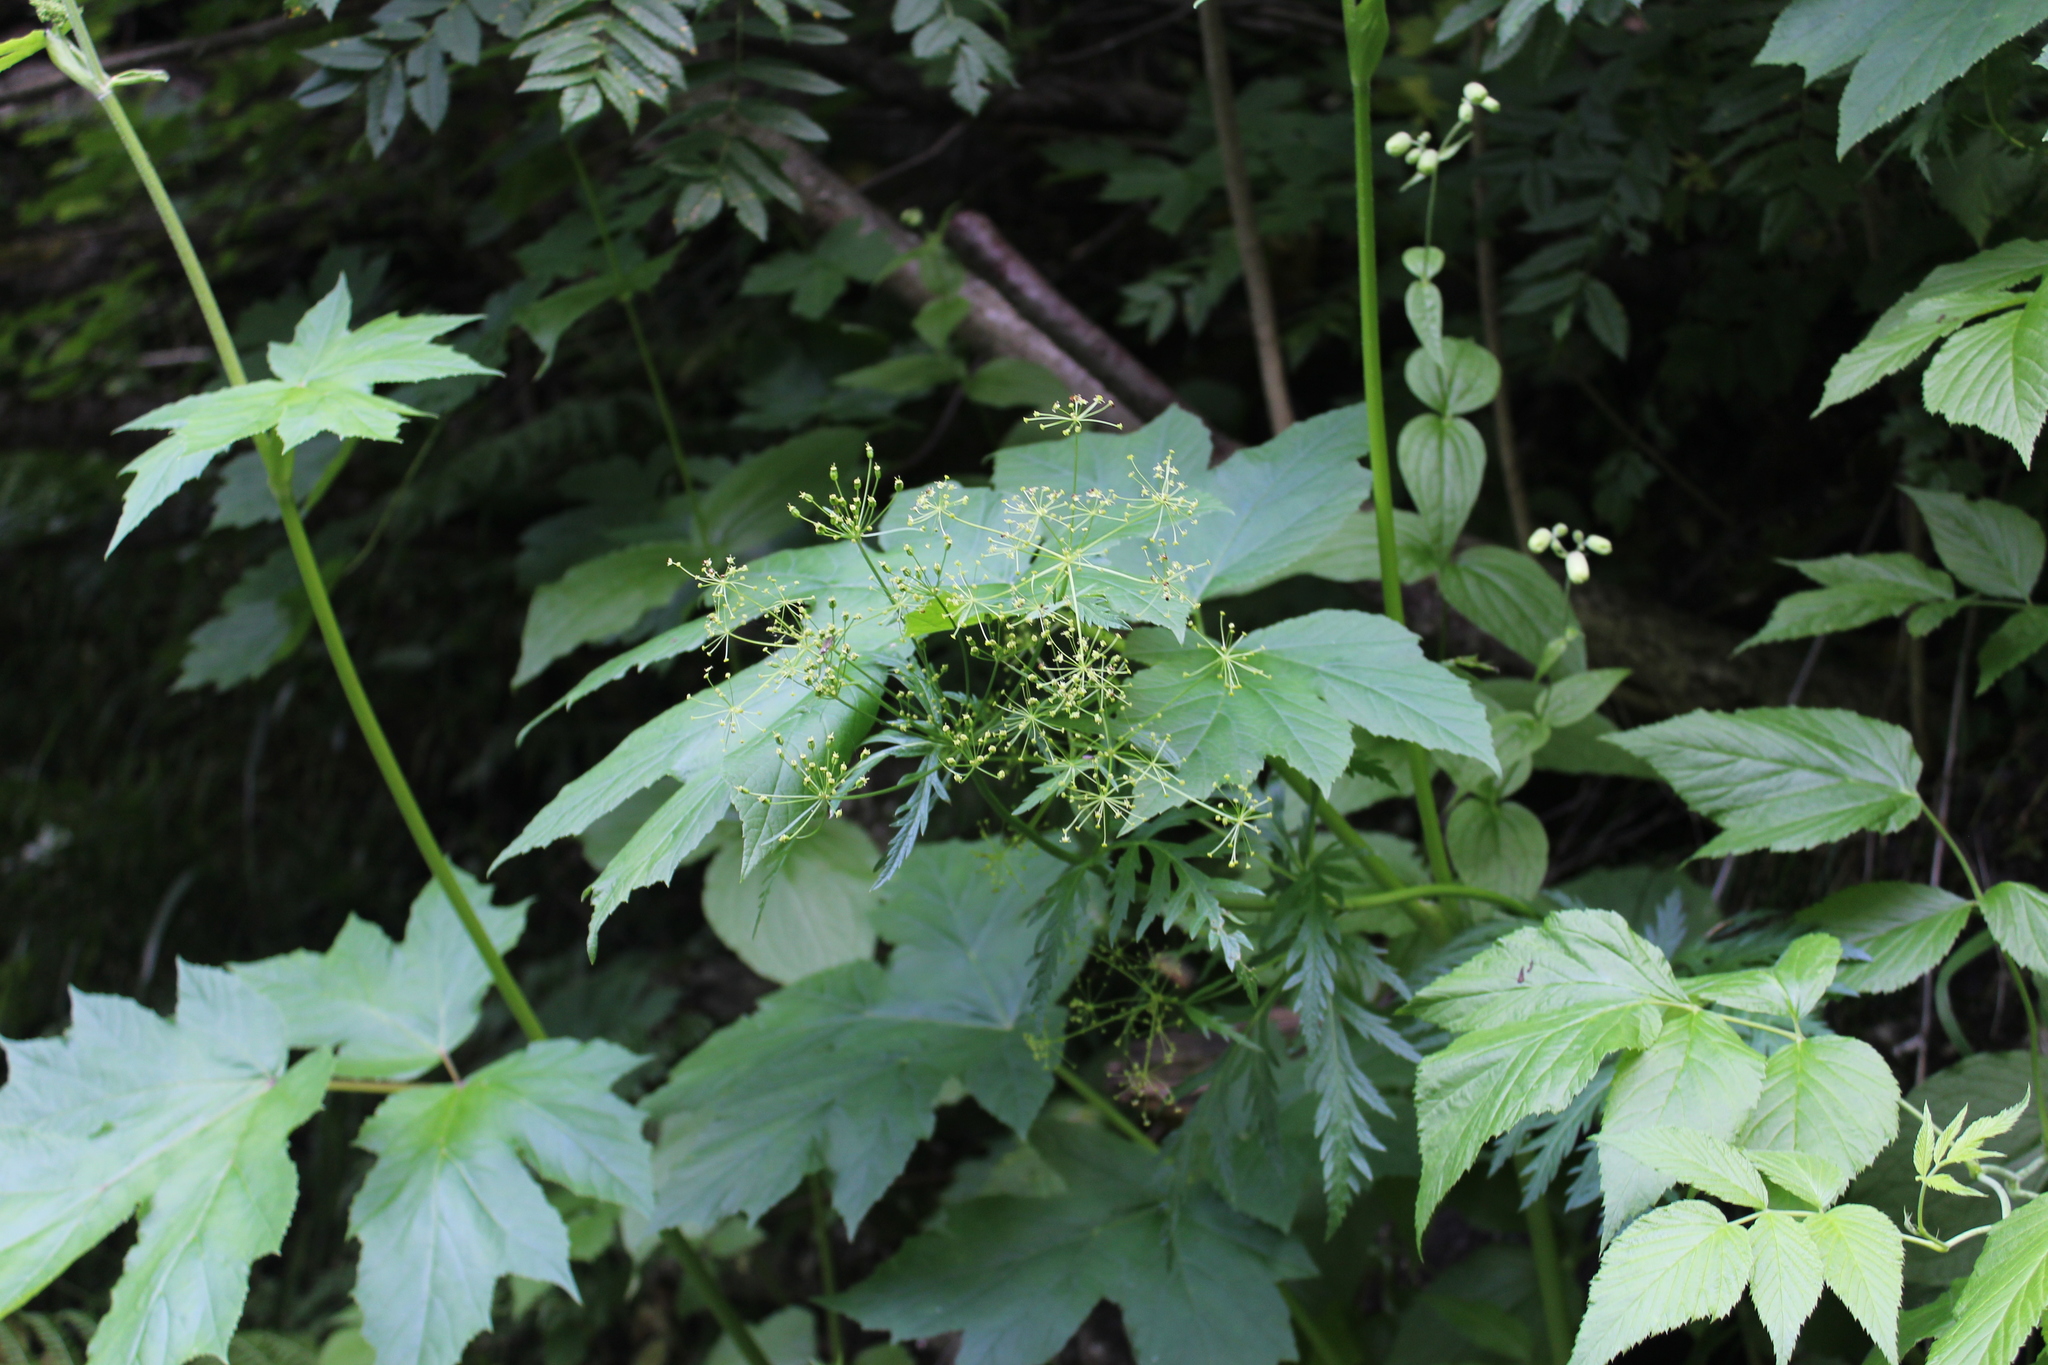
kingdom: Plantae
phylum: Tracheophyta
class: Magnoliopsida
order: Apiales
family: Apiaceae
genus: Eleutherospermum
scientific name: Eleutherospermum cicutarium
